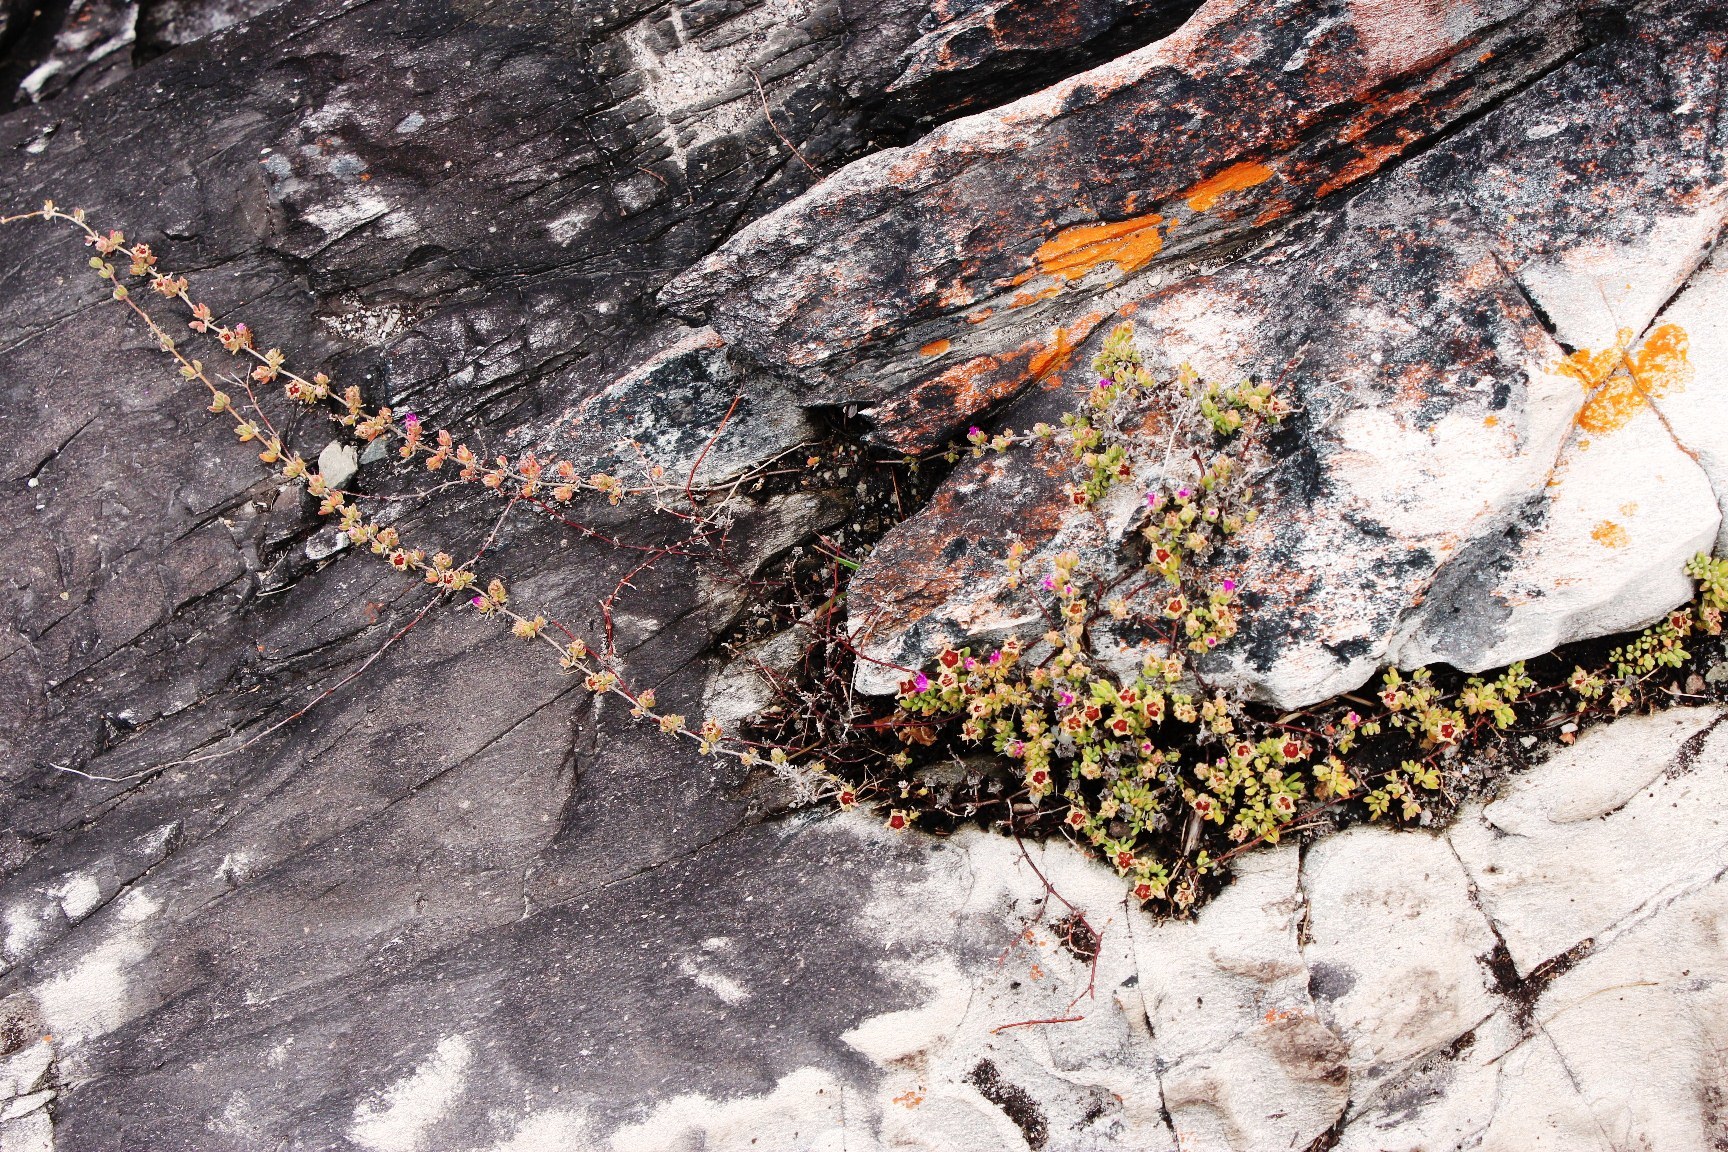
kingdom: Plantae
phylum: Tracheophyta
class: Magnoliopsida
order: Caryophyllales
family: Aizoaceae
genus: Drosanthemum
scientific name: Drosanthemum candens
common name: Rodondo-creeper
